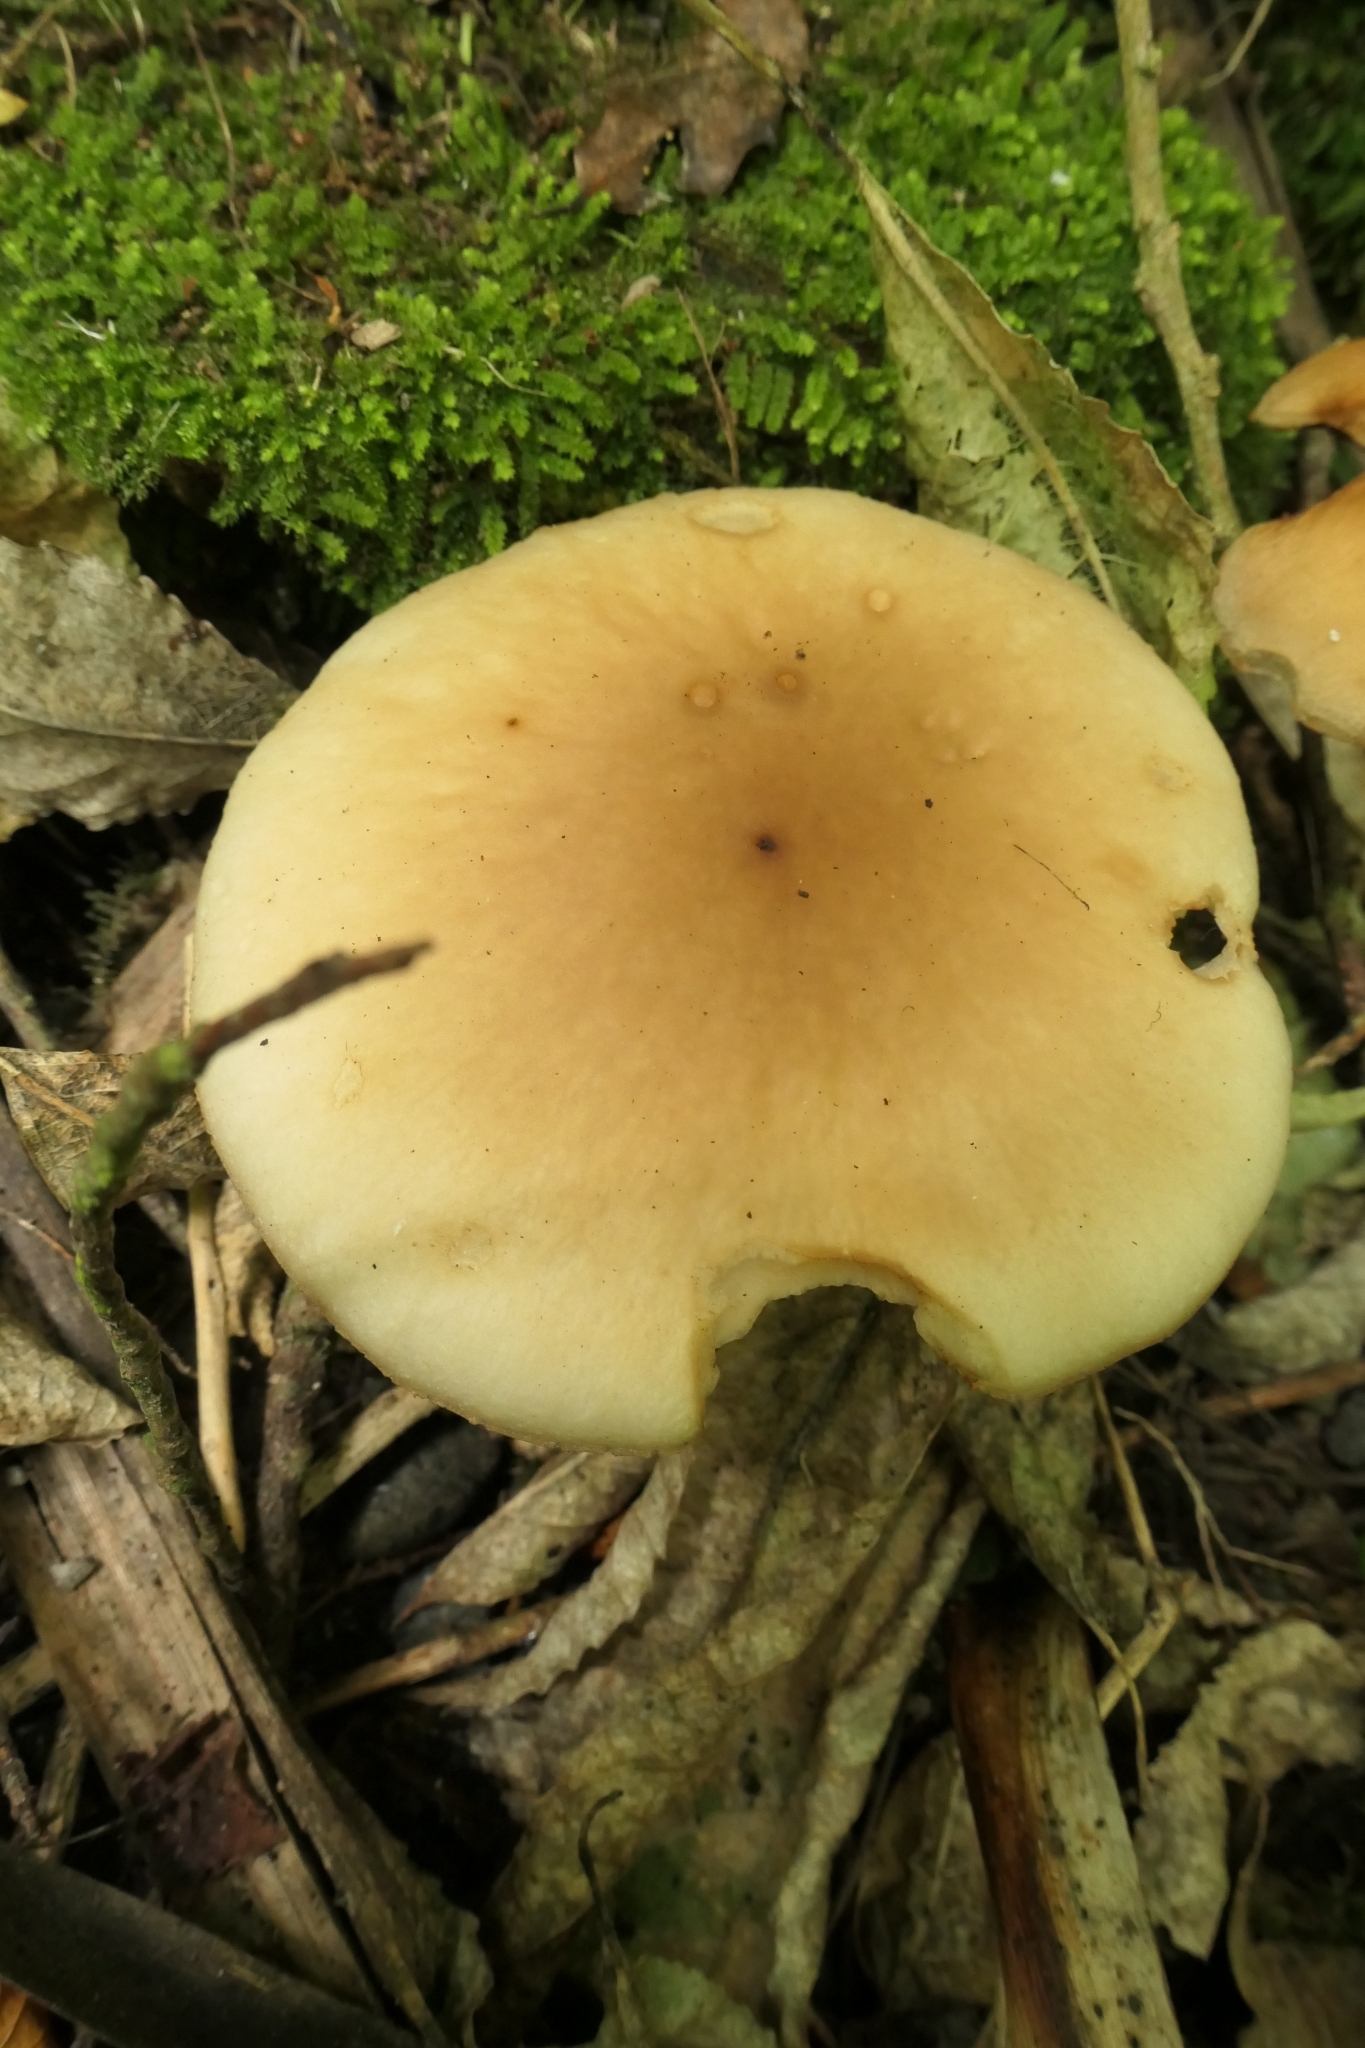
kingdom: Fungi
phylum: Basidiomycota
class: Agaricomycetes
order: Agaricales
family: Tubariaceae
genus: Cyclocybe
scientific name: Cyclocybe parasitica
